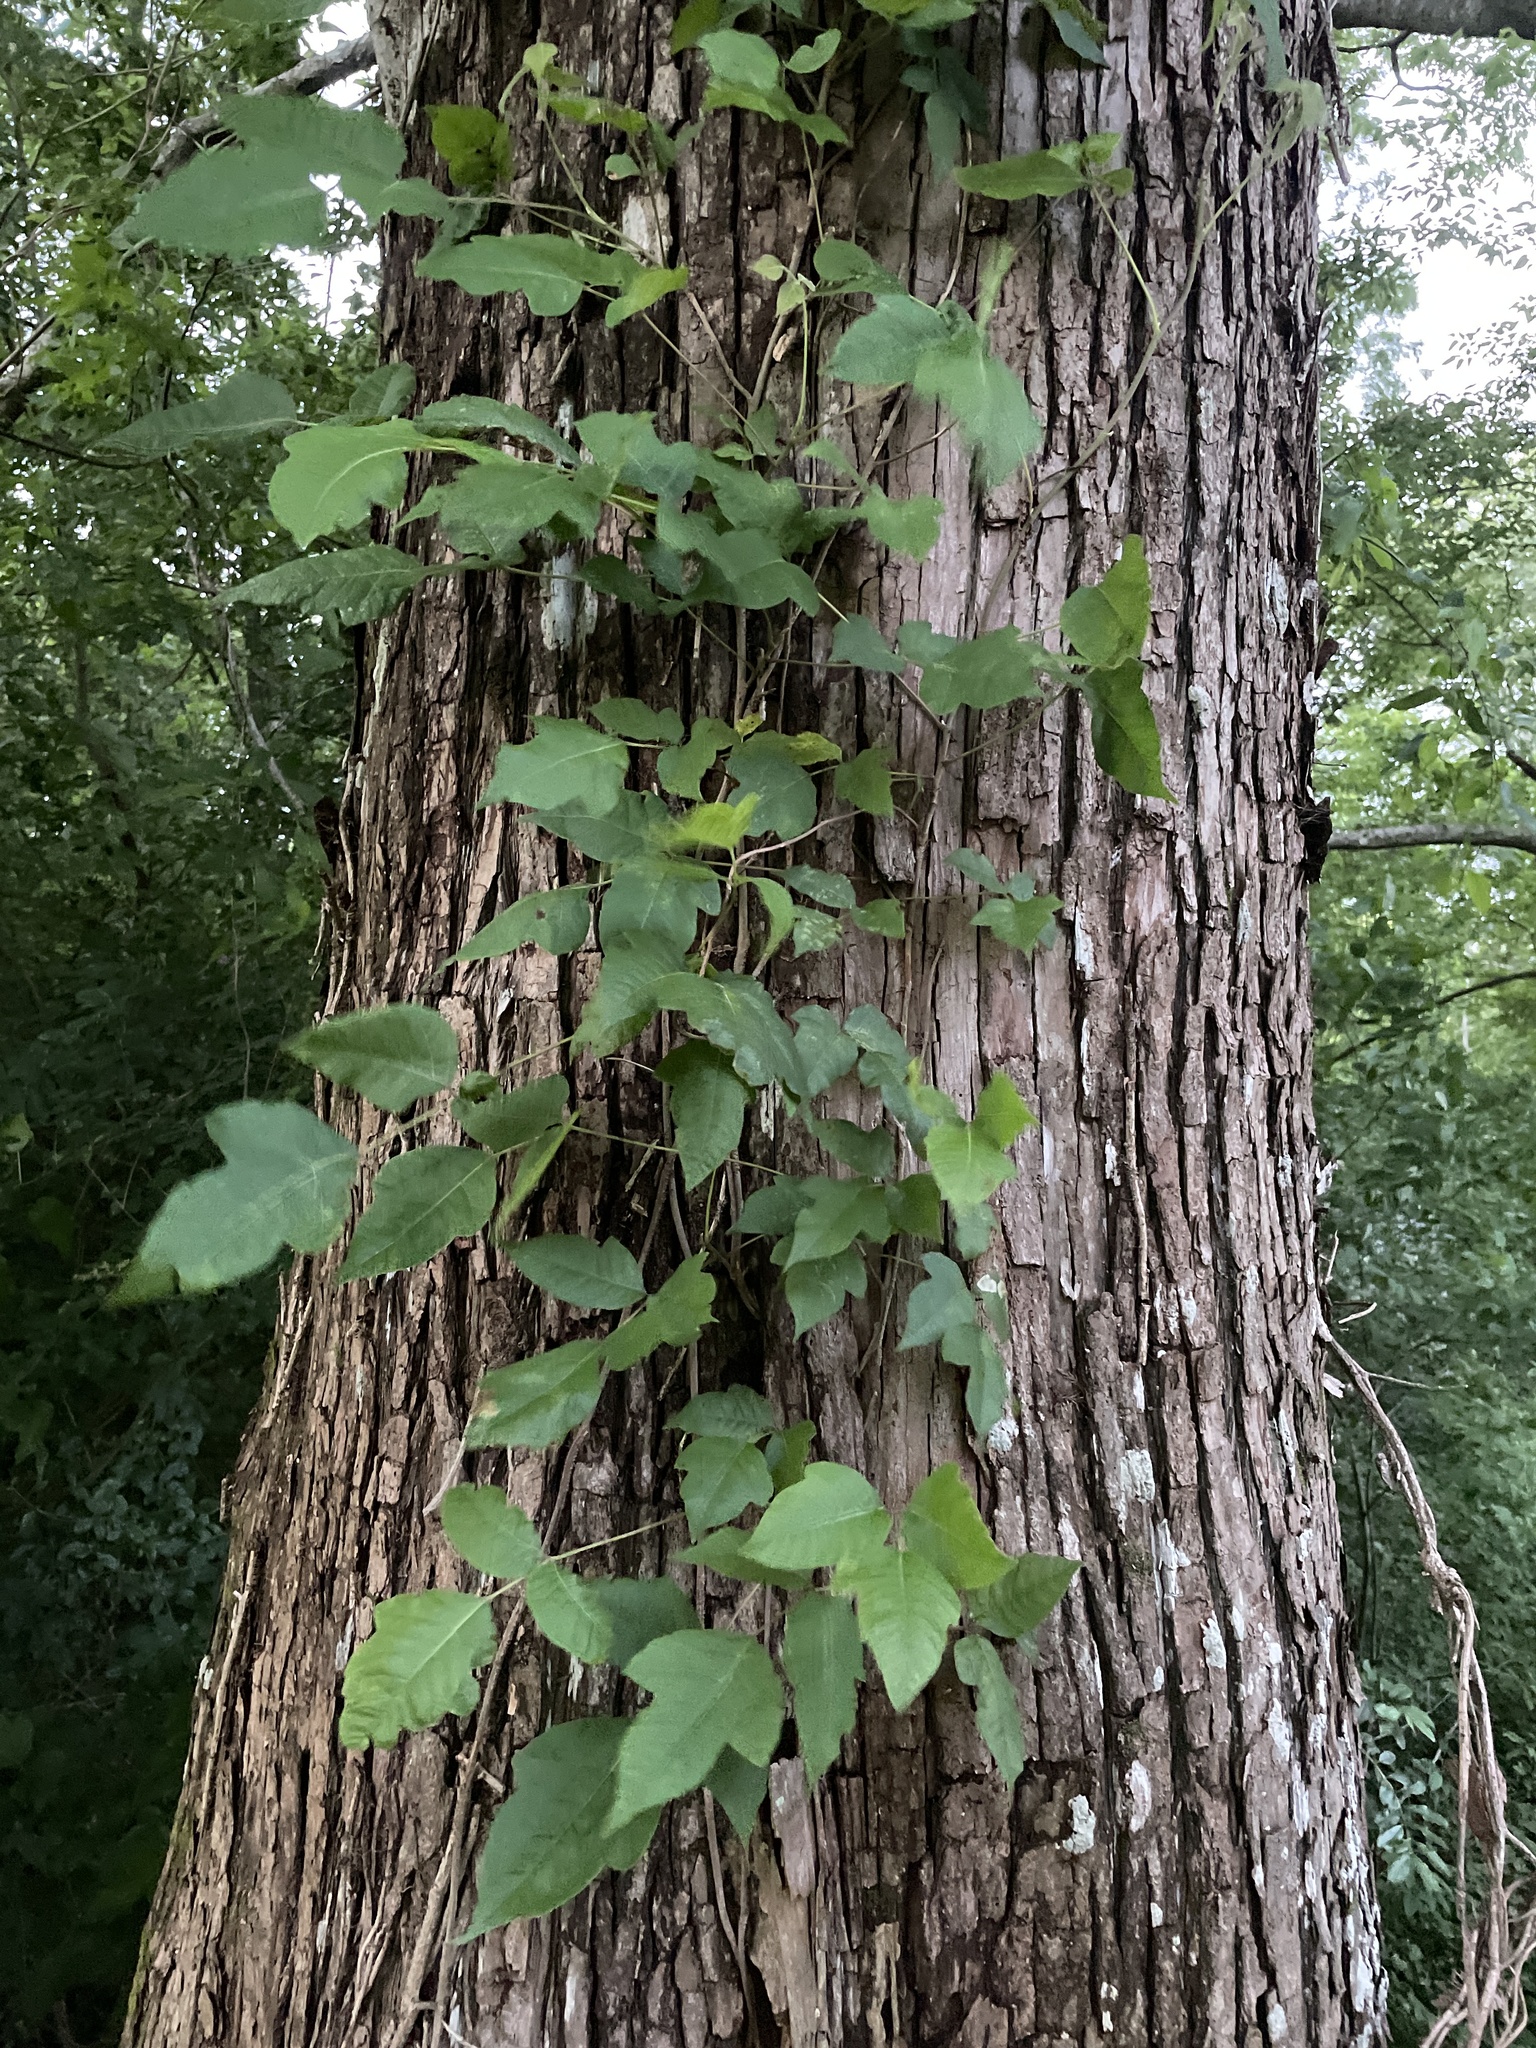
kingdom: Plantae
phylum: Tracheophyta
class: Magnoliopsida
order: Sapindales
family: Anacardiaceae
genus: Toxicodendron
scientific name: Toxicodendron radicans
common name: Poison ivy
